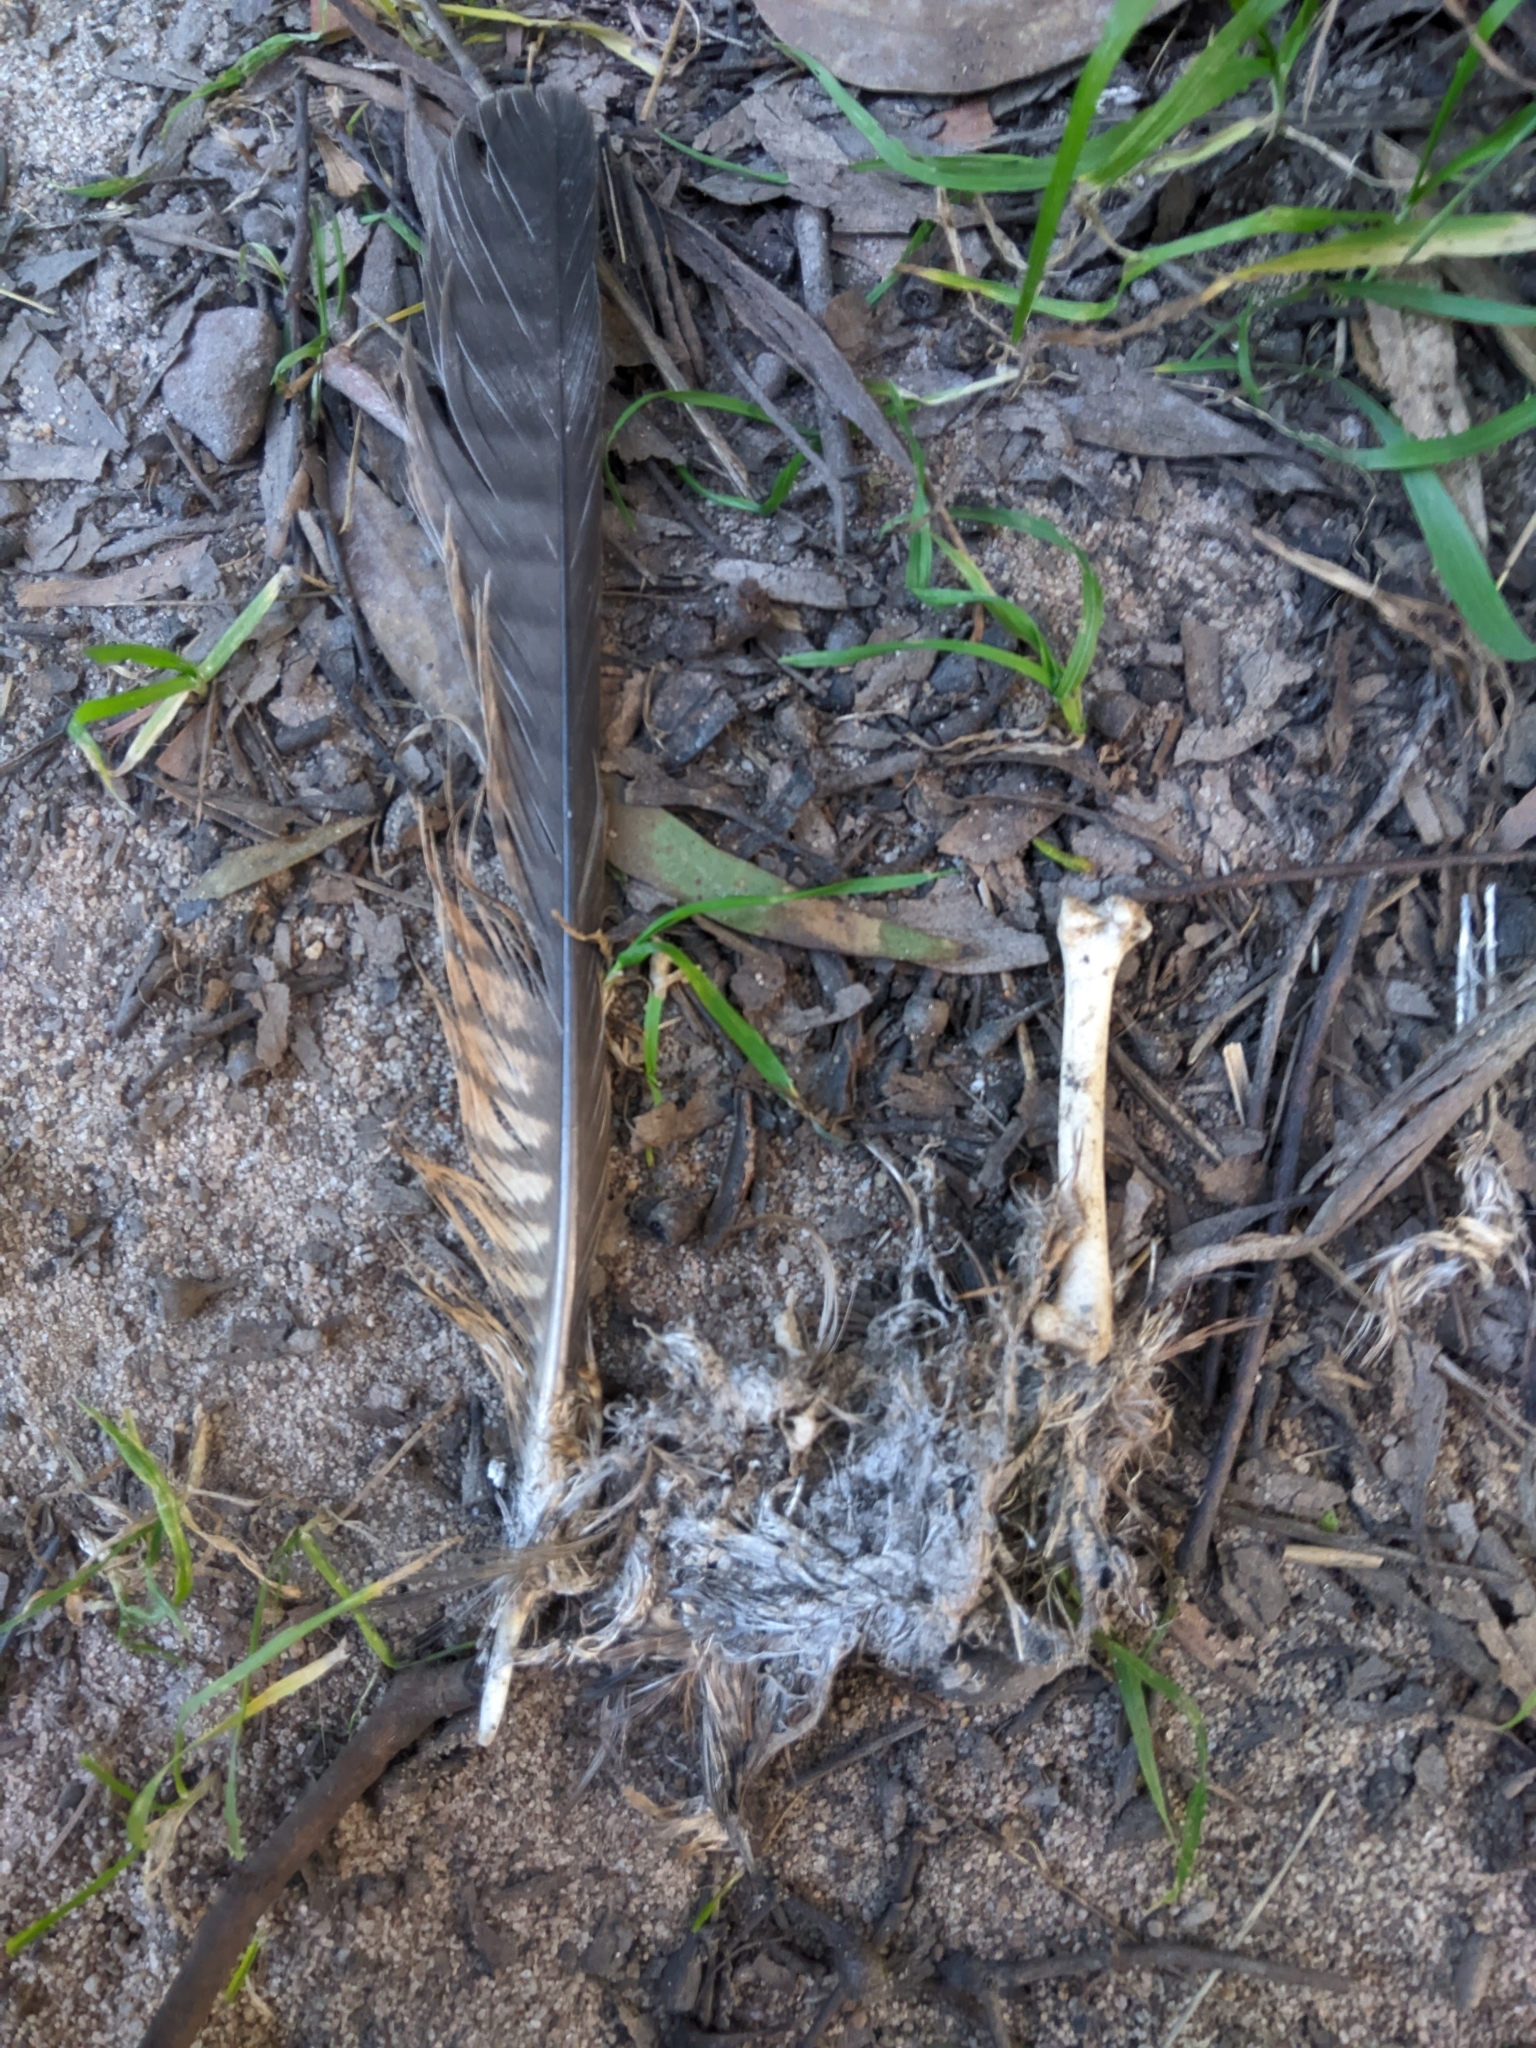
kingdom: Animalia
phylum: Chordata
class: Aves
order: Coraciiformes
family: Alcedinidae
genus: Dacelo
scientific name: Dacelo novaeguineae
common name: Laughing kookaburra
